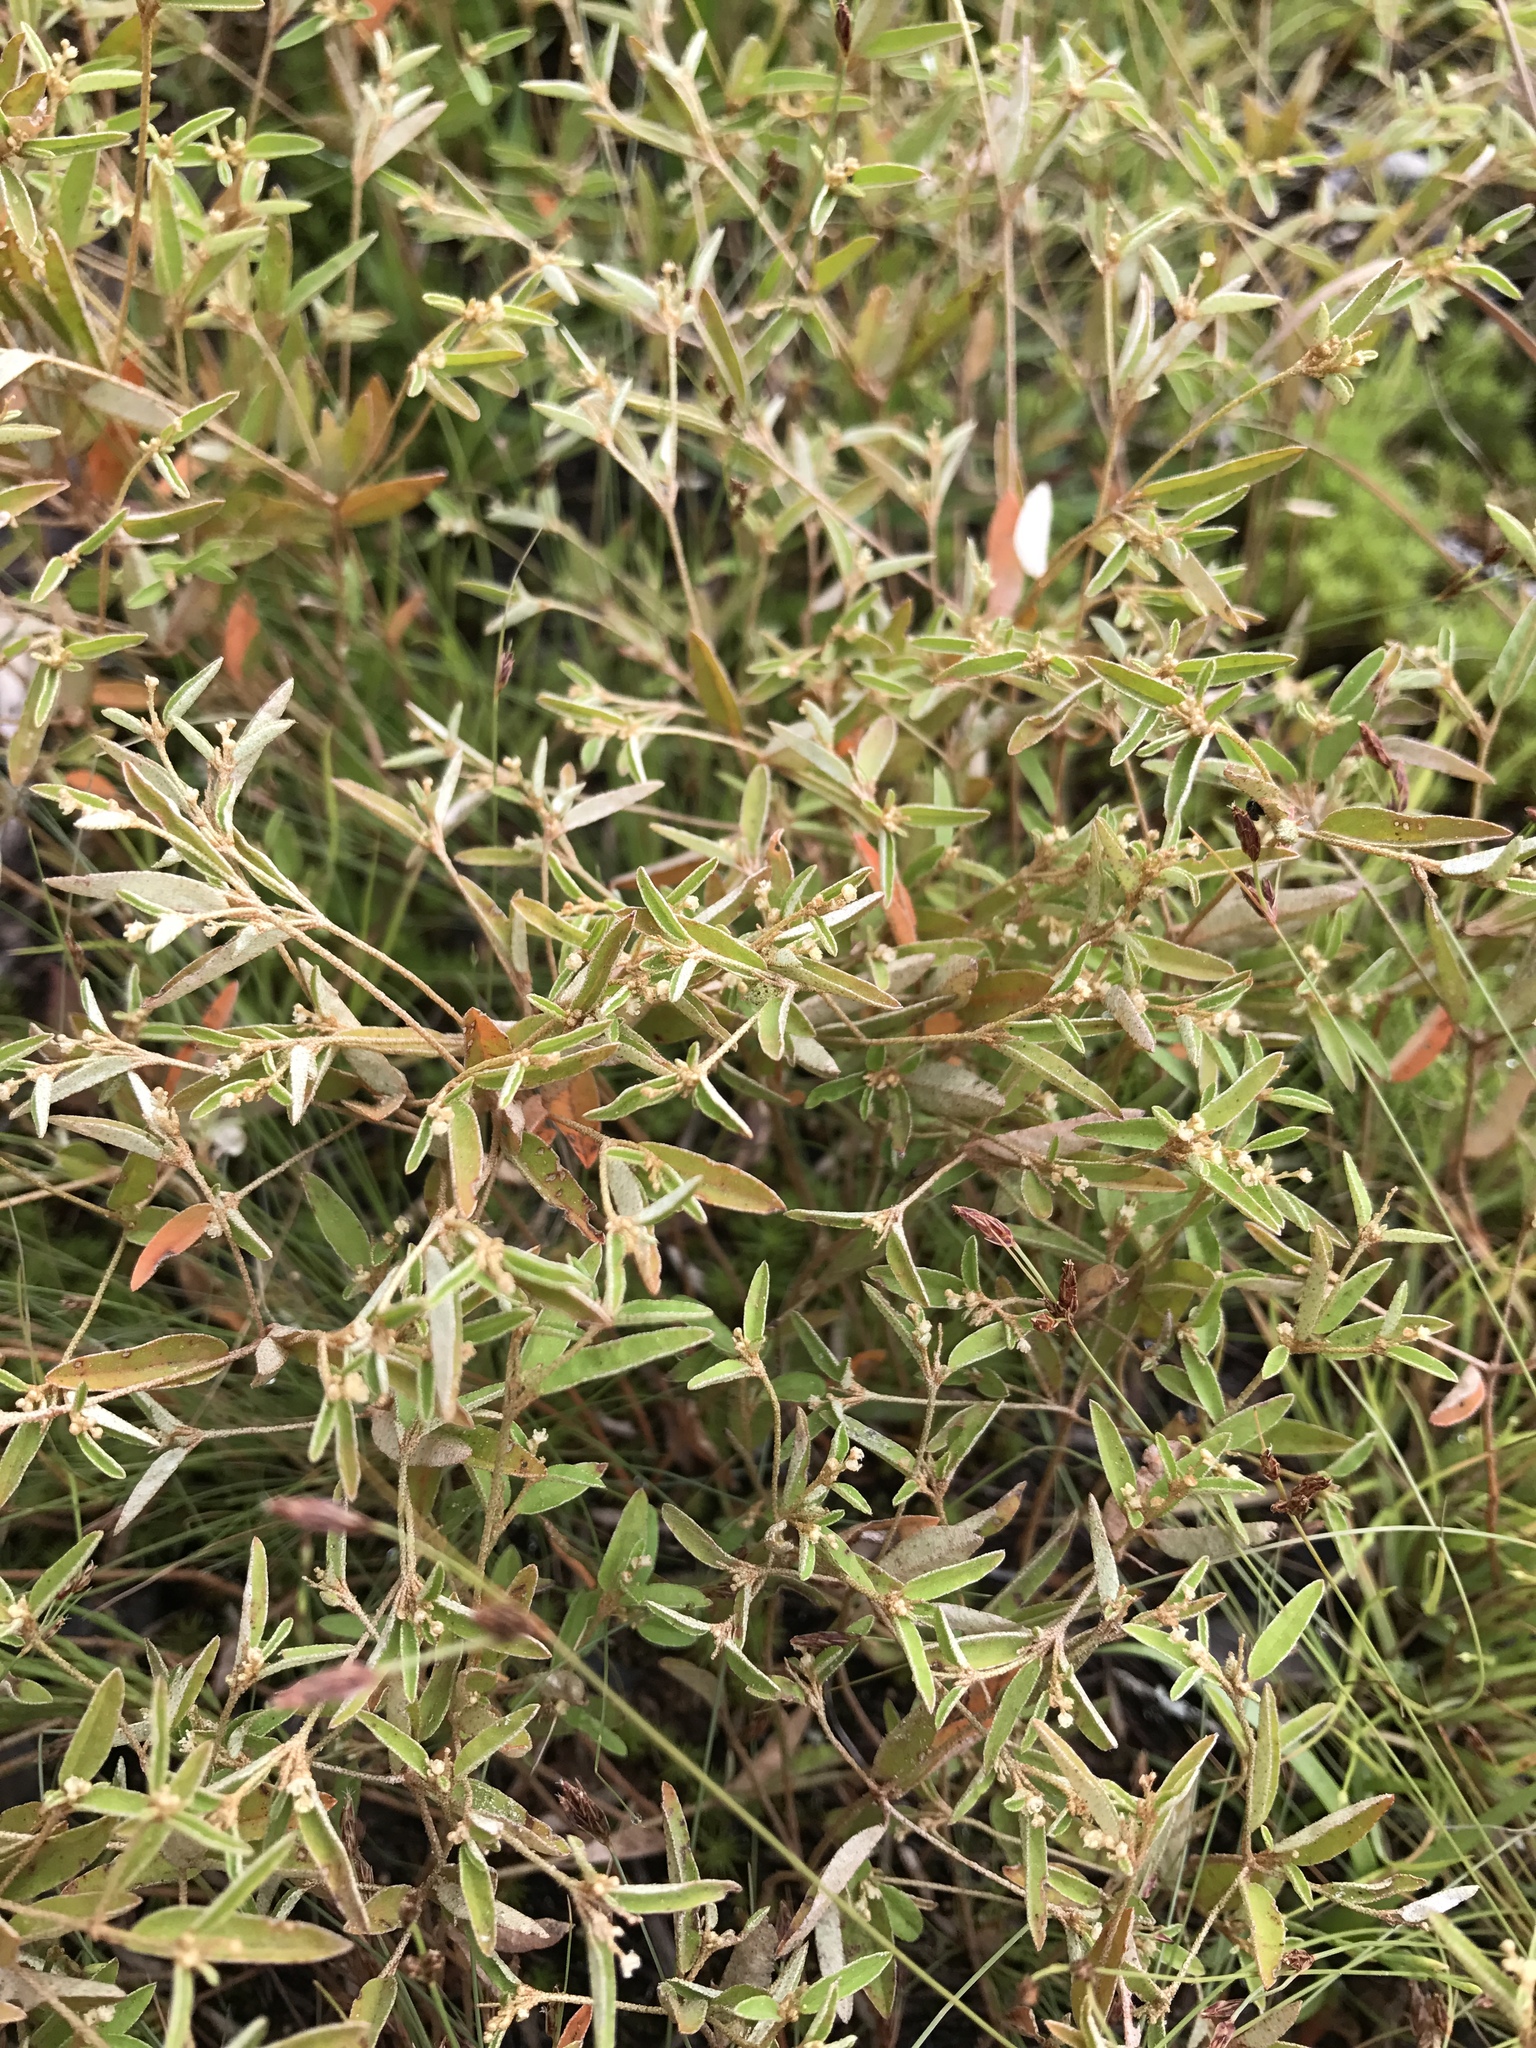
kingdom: Plantae
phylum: Tracheophyta
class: Magnoliopsida
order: Malpighiales
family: Euphorbiaceae
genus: Croton
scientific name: Croton michauxii
